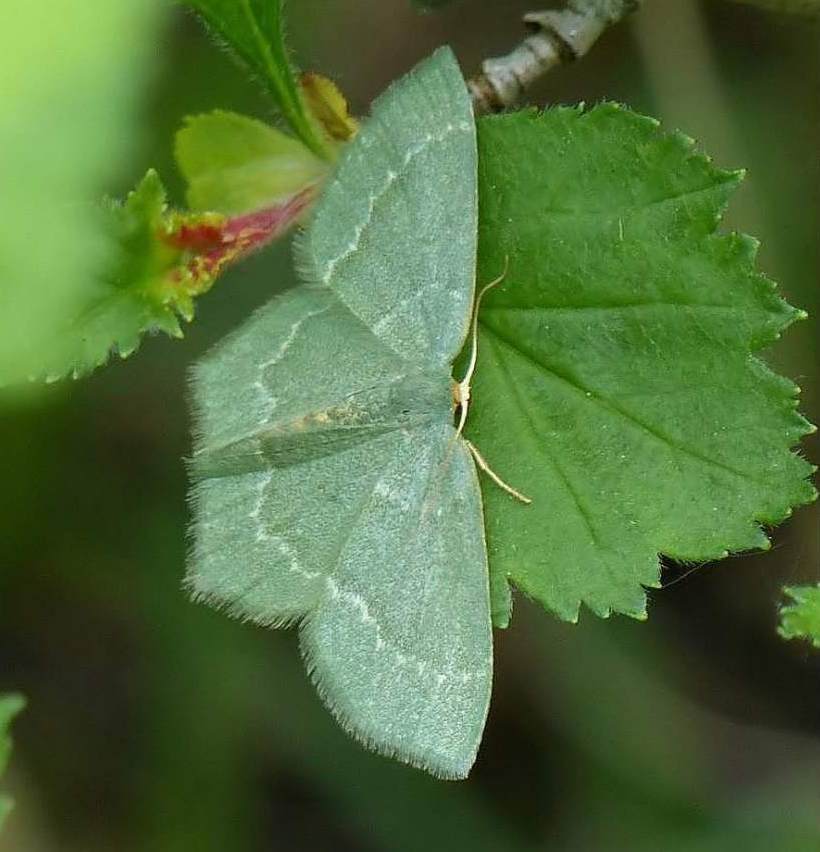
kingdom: Animalia
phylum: Arthropoda
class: Insecta
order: Lepidoptera
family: Geometridae
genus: Thalera
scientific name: Thalera pistasciaria
